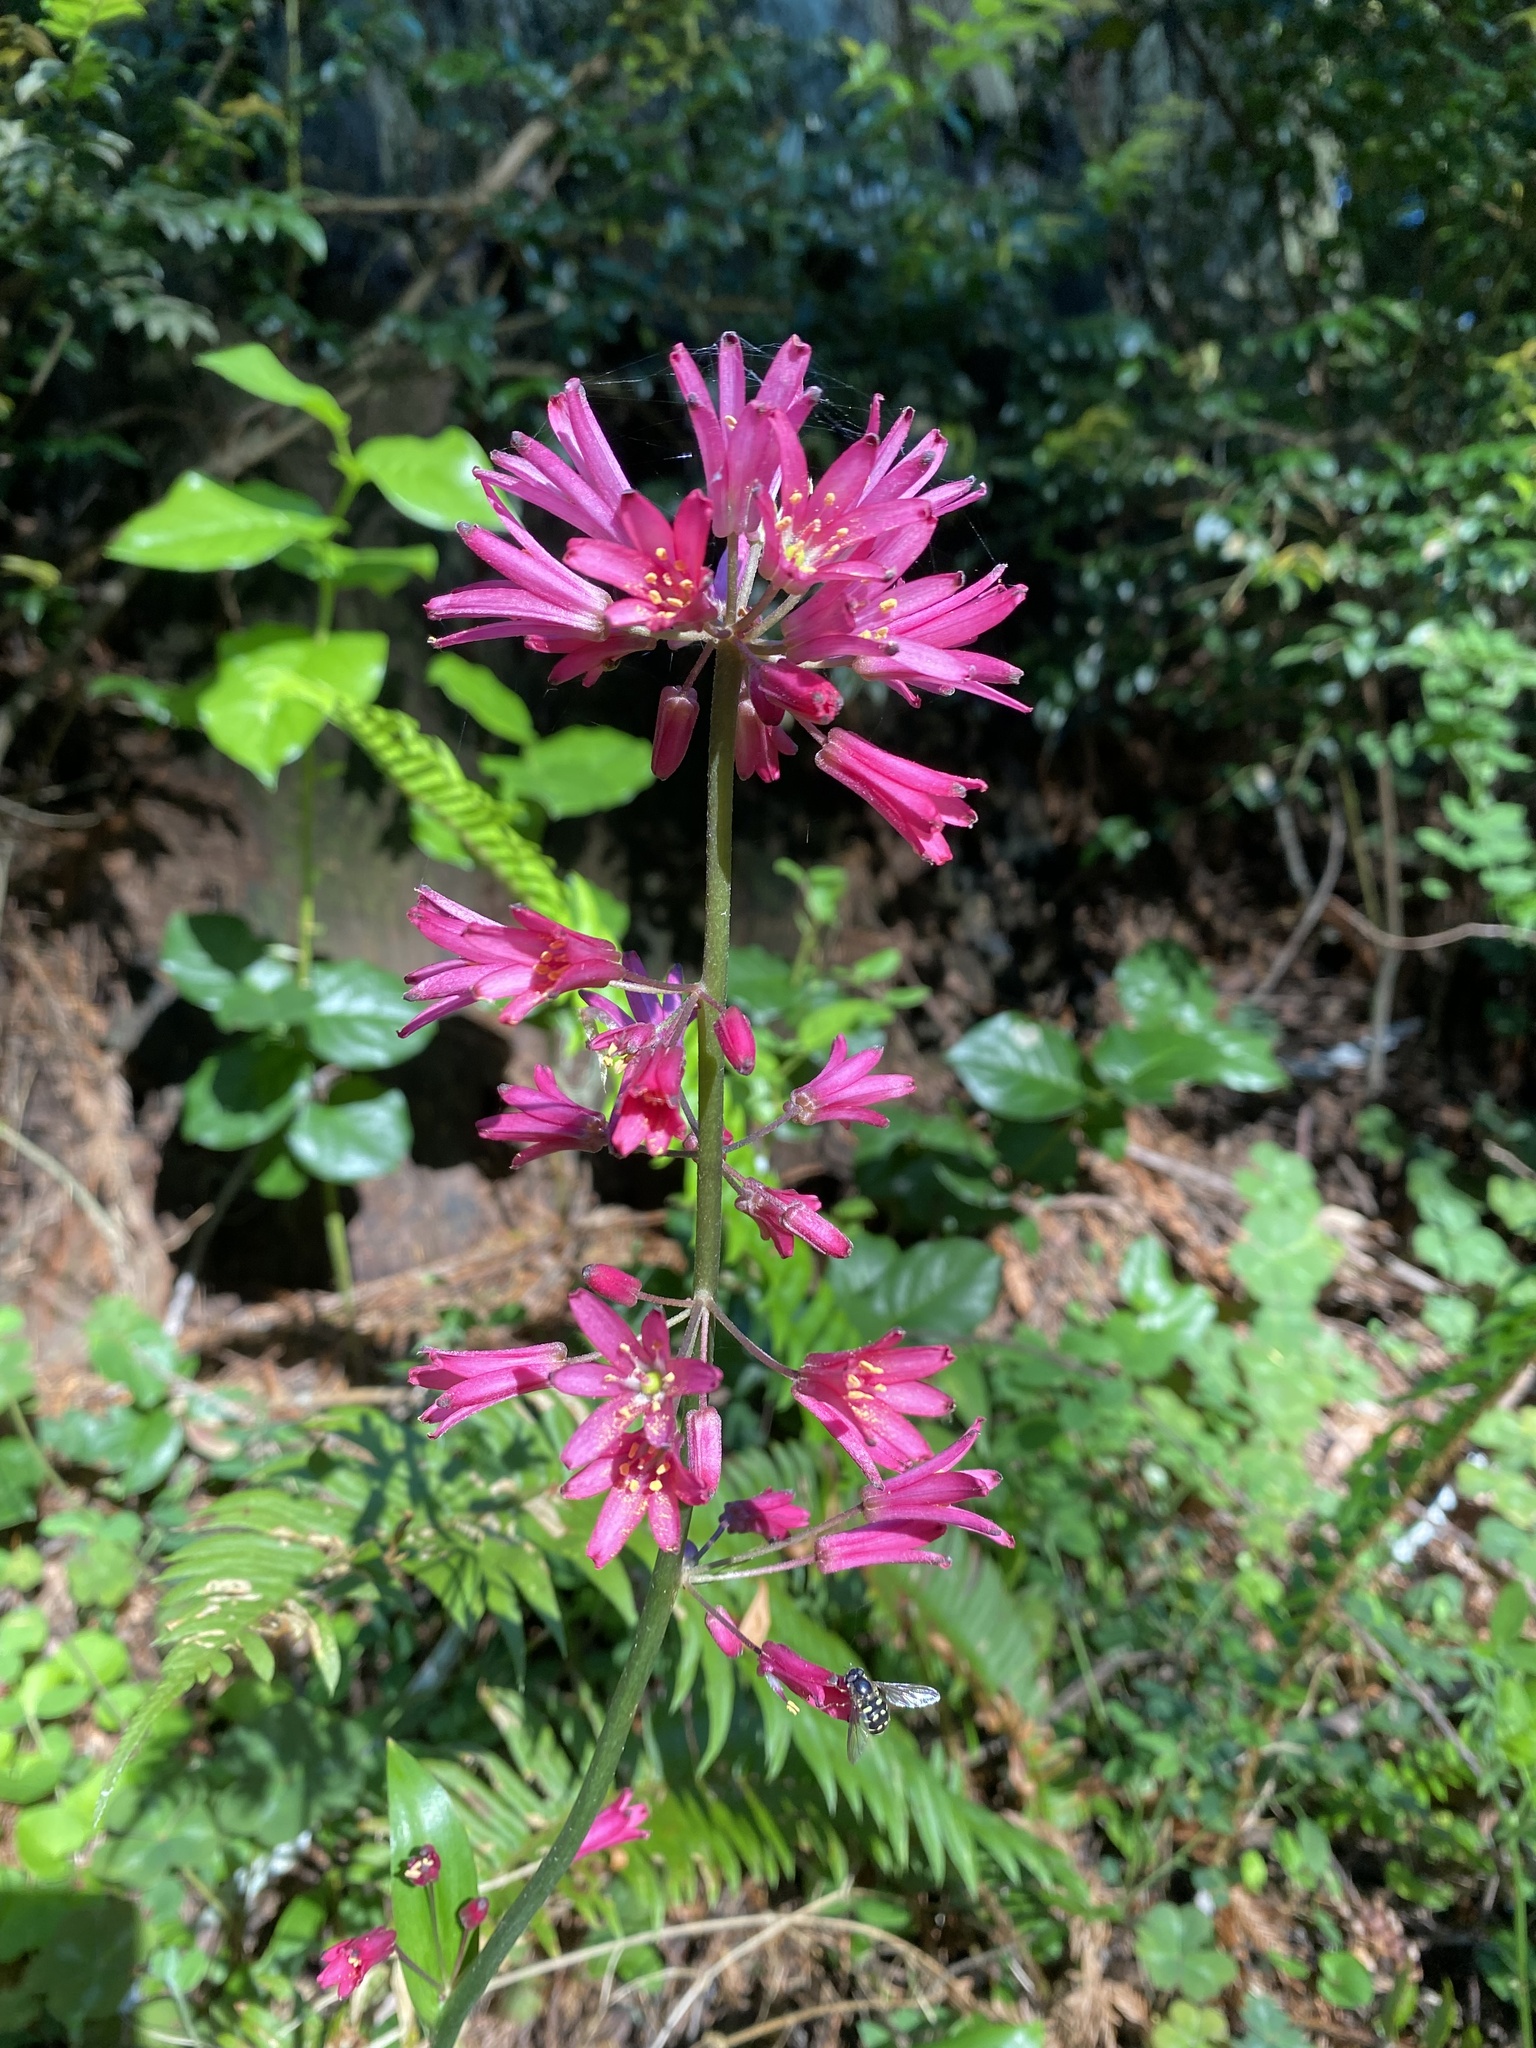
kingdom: Plantae
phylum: Tracheophyta
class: Liliopsida
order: Liliales
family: Liliaceae
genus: Clintonia
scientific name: Clintonia andrewsiana
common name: Red clintonia
